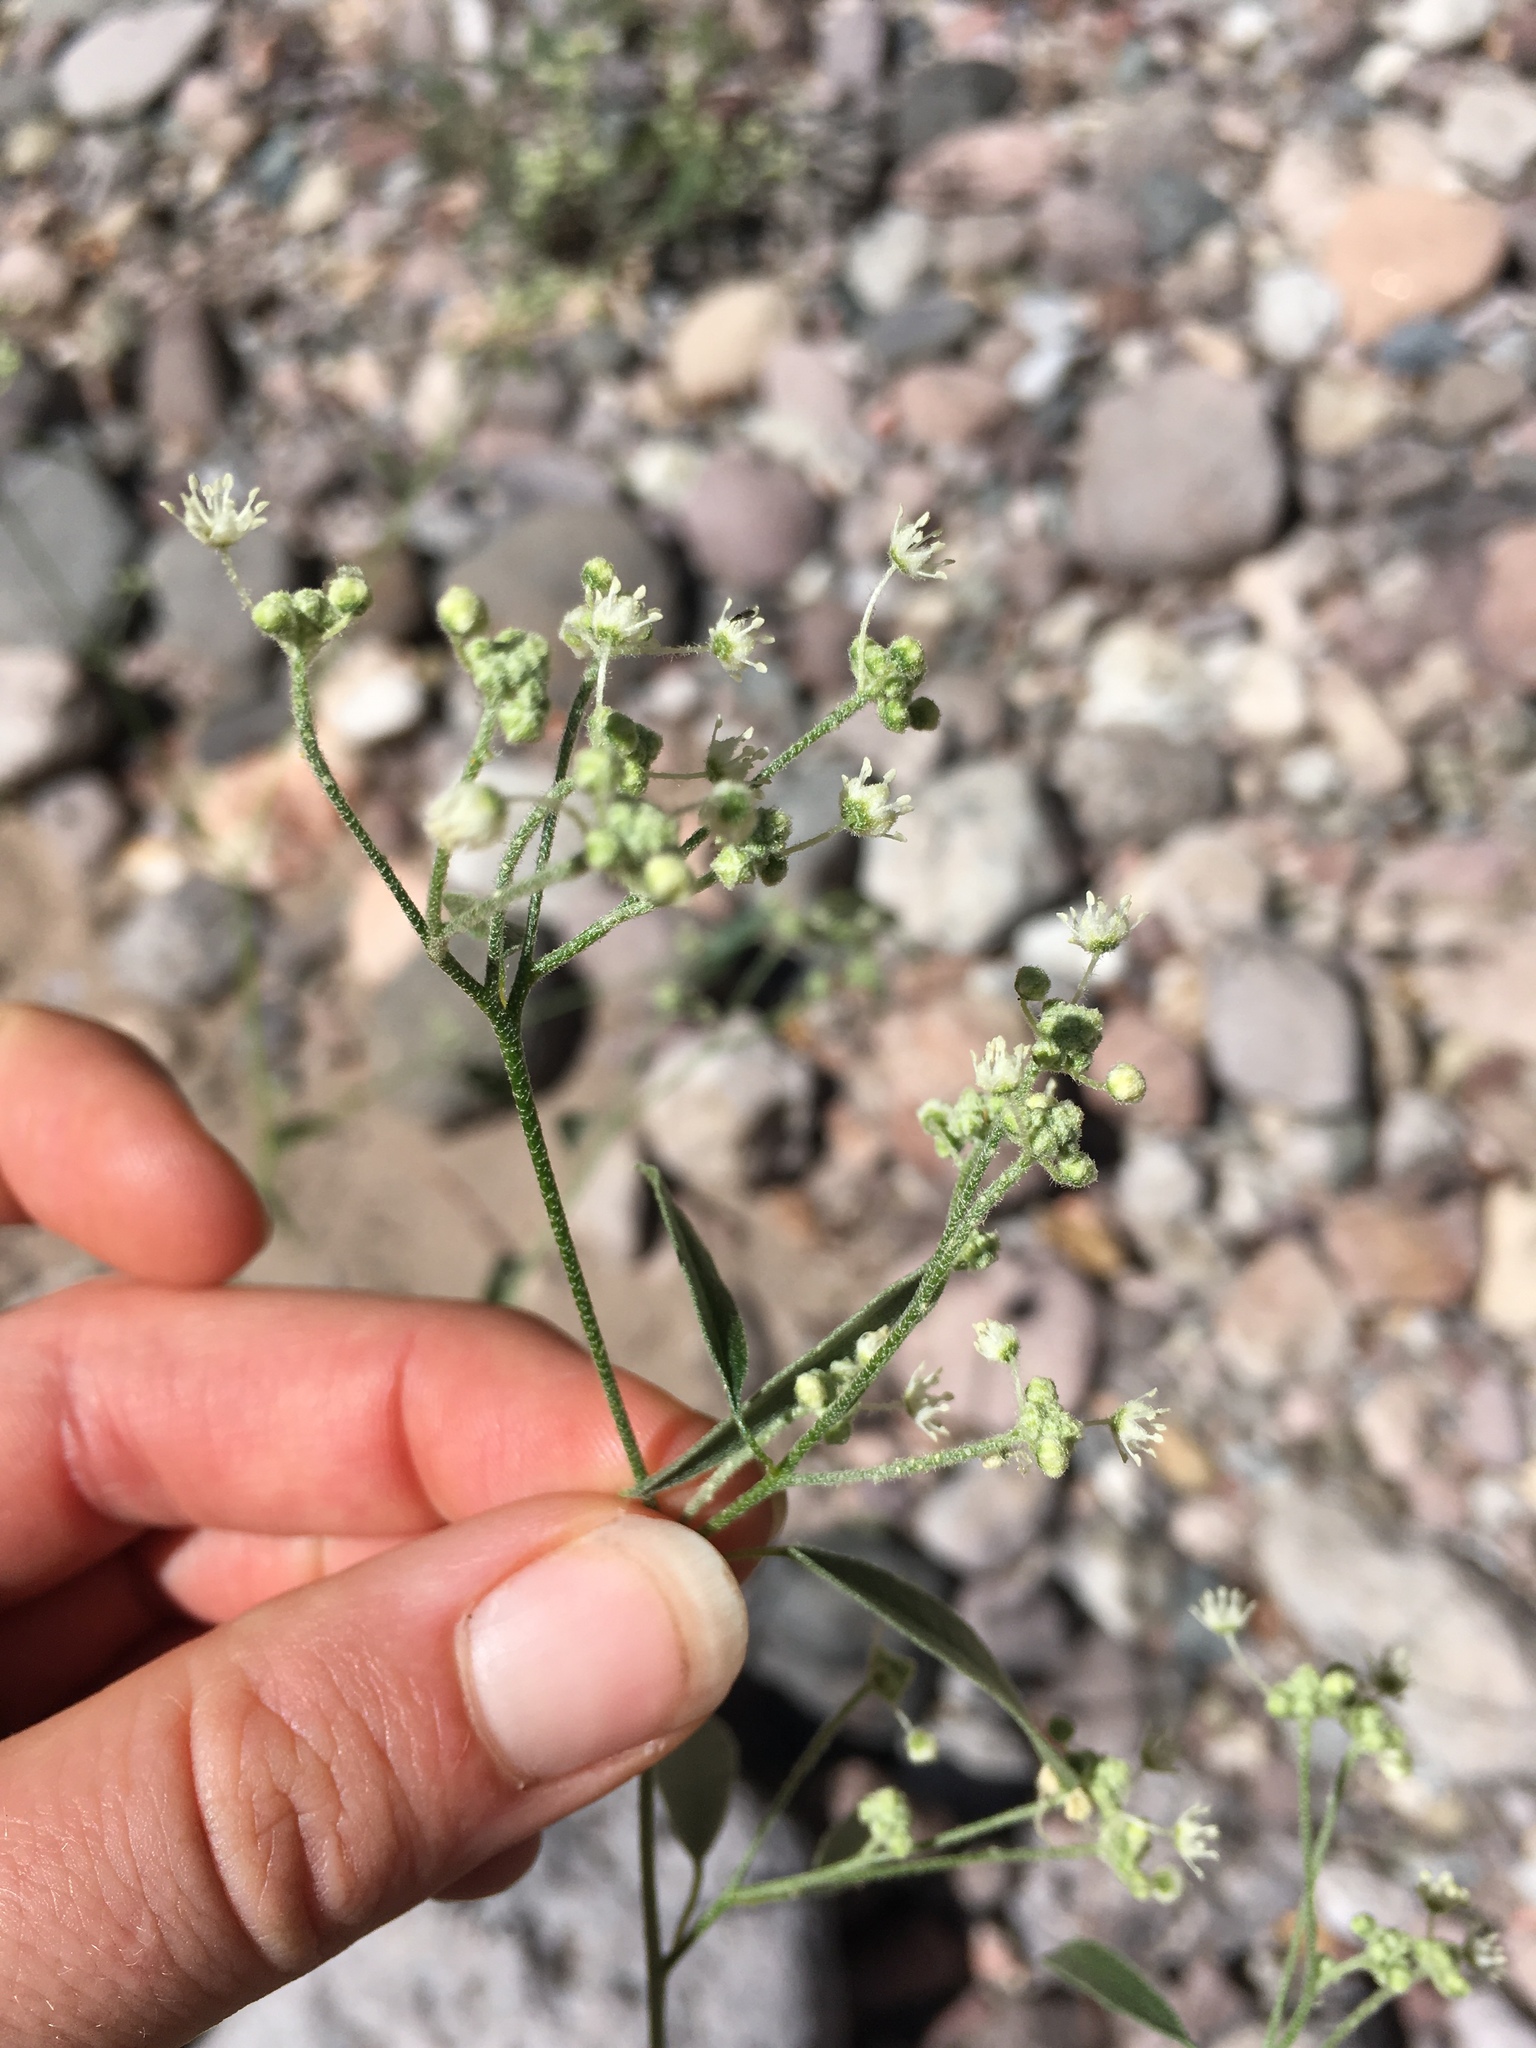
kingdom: Plantae
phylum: Tracheophyta
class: Magnoliopsida
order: Malpighiales
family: Euphorbiaceae
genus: Croton
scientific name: Croton texensis
